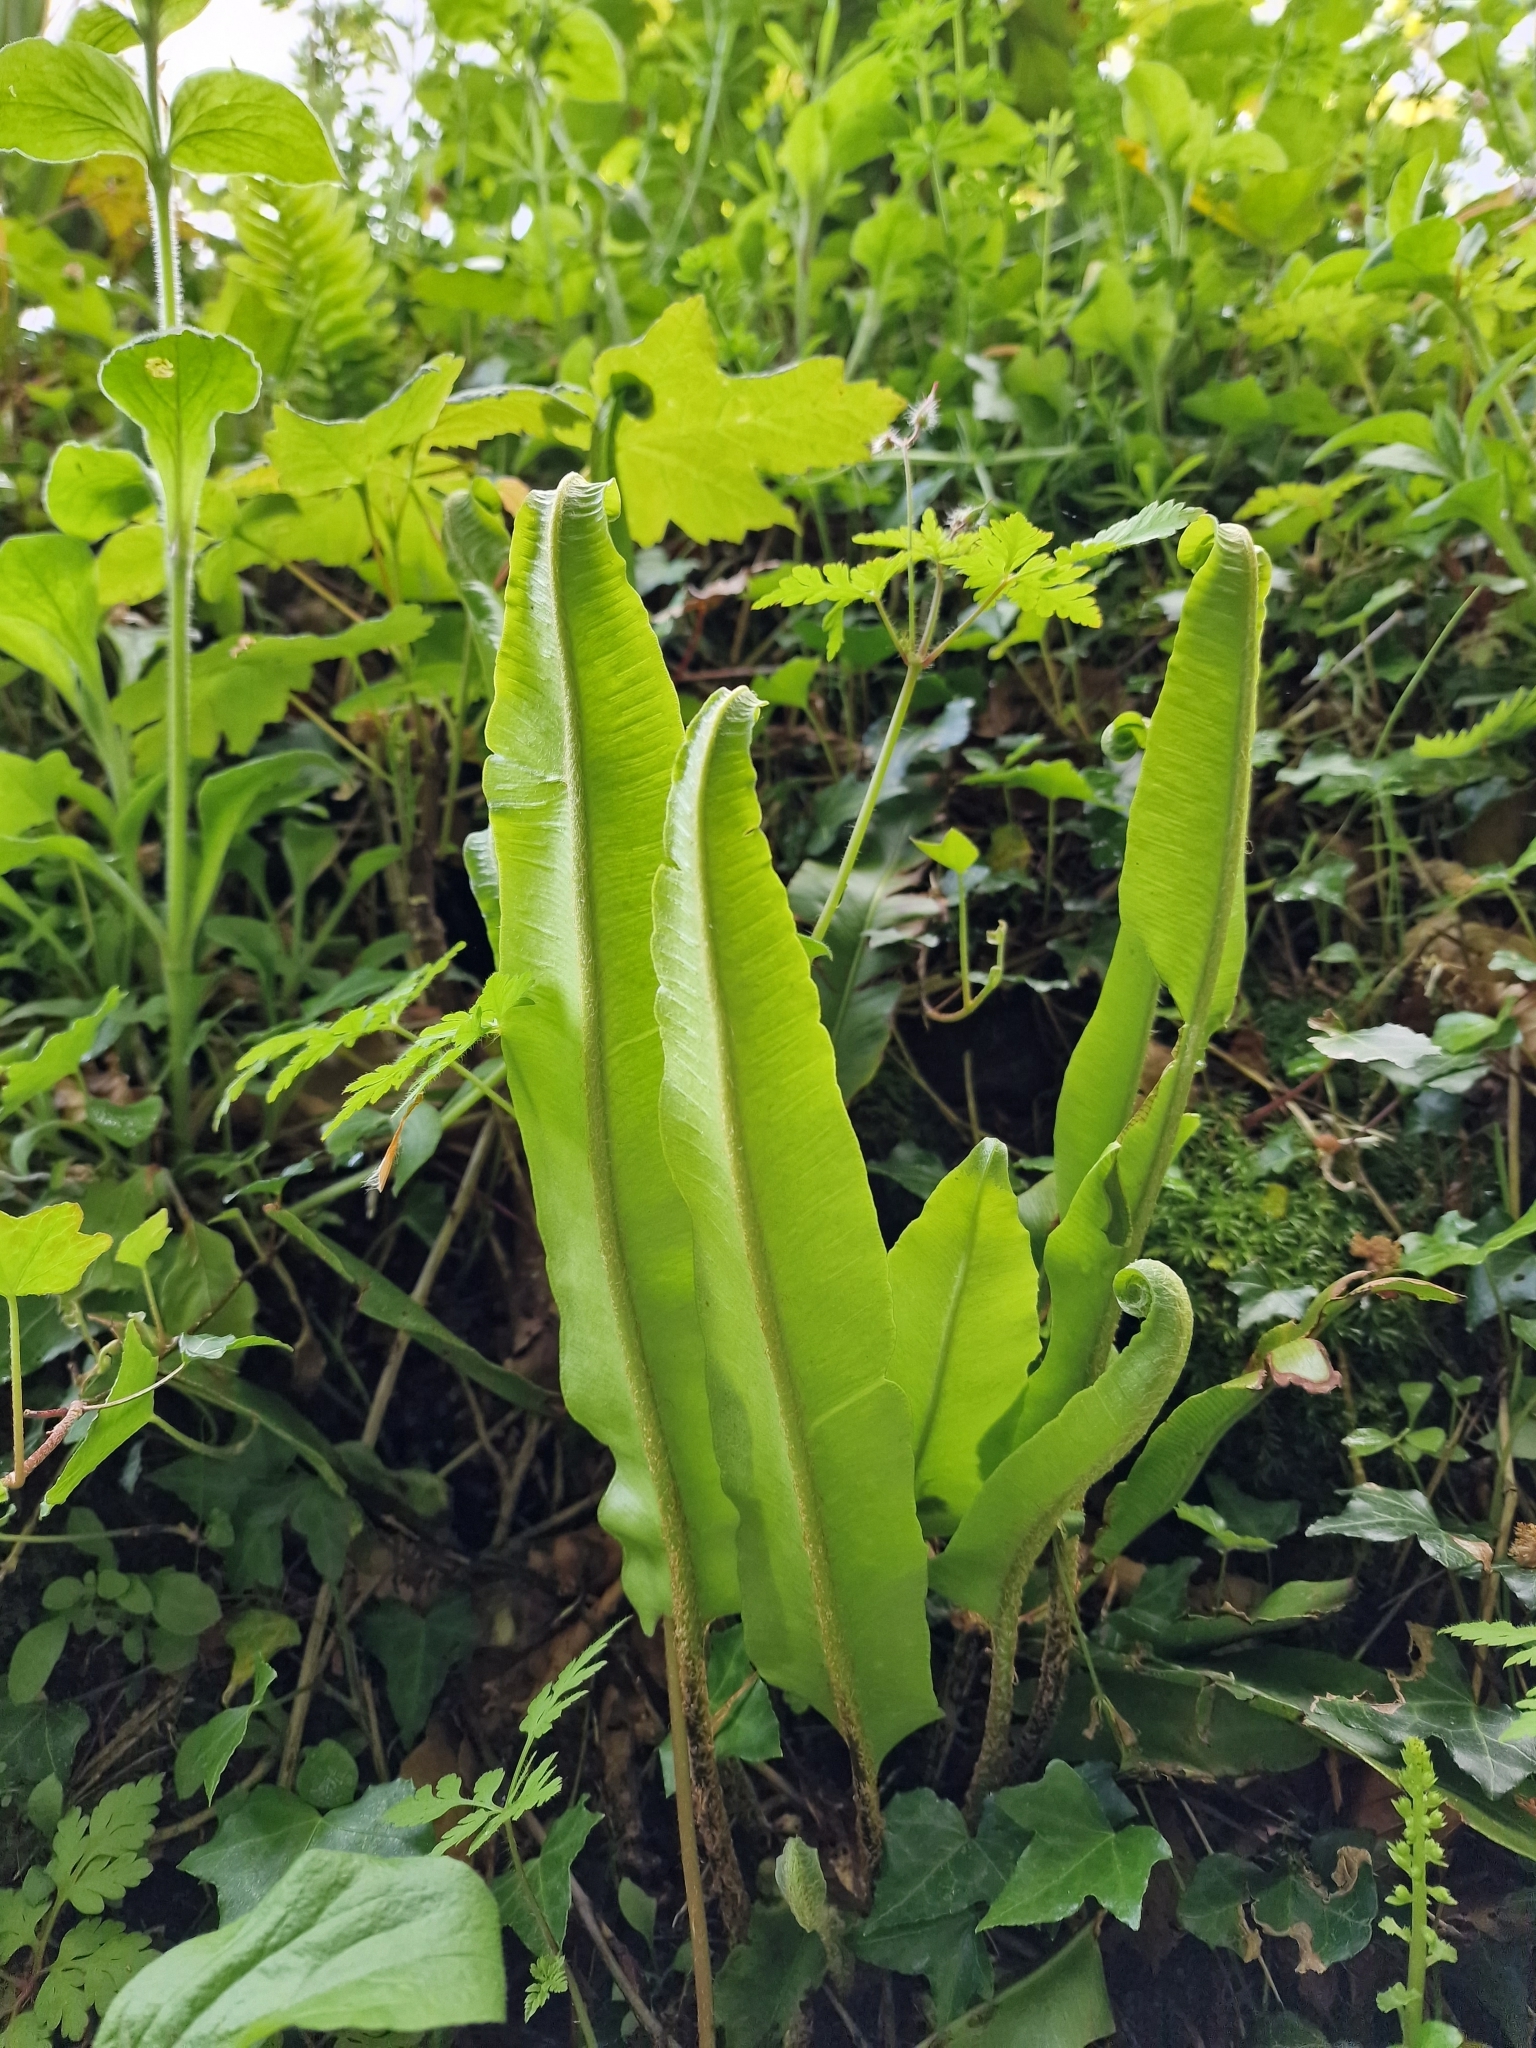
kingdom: Plantae
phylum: Tracheophyta
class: Polypodiopsida
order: Polypodiales
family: Aspleniaceae
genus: Asplenium
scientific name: Asplenium scolopendrium
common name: Hart's-tongue fern
